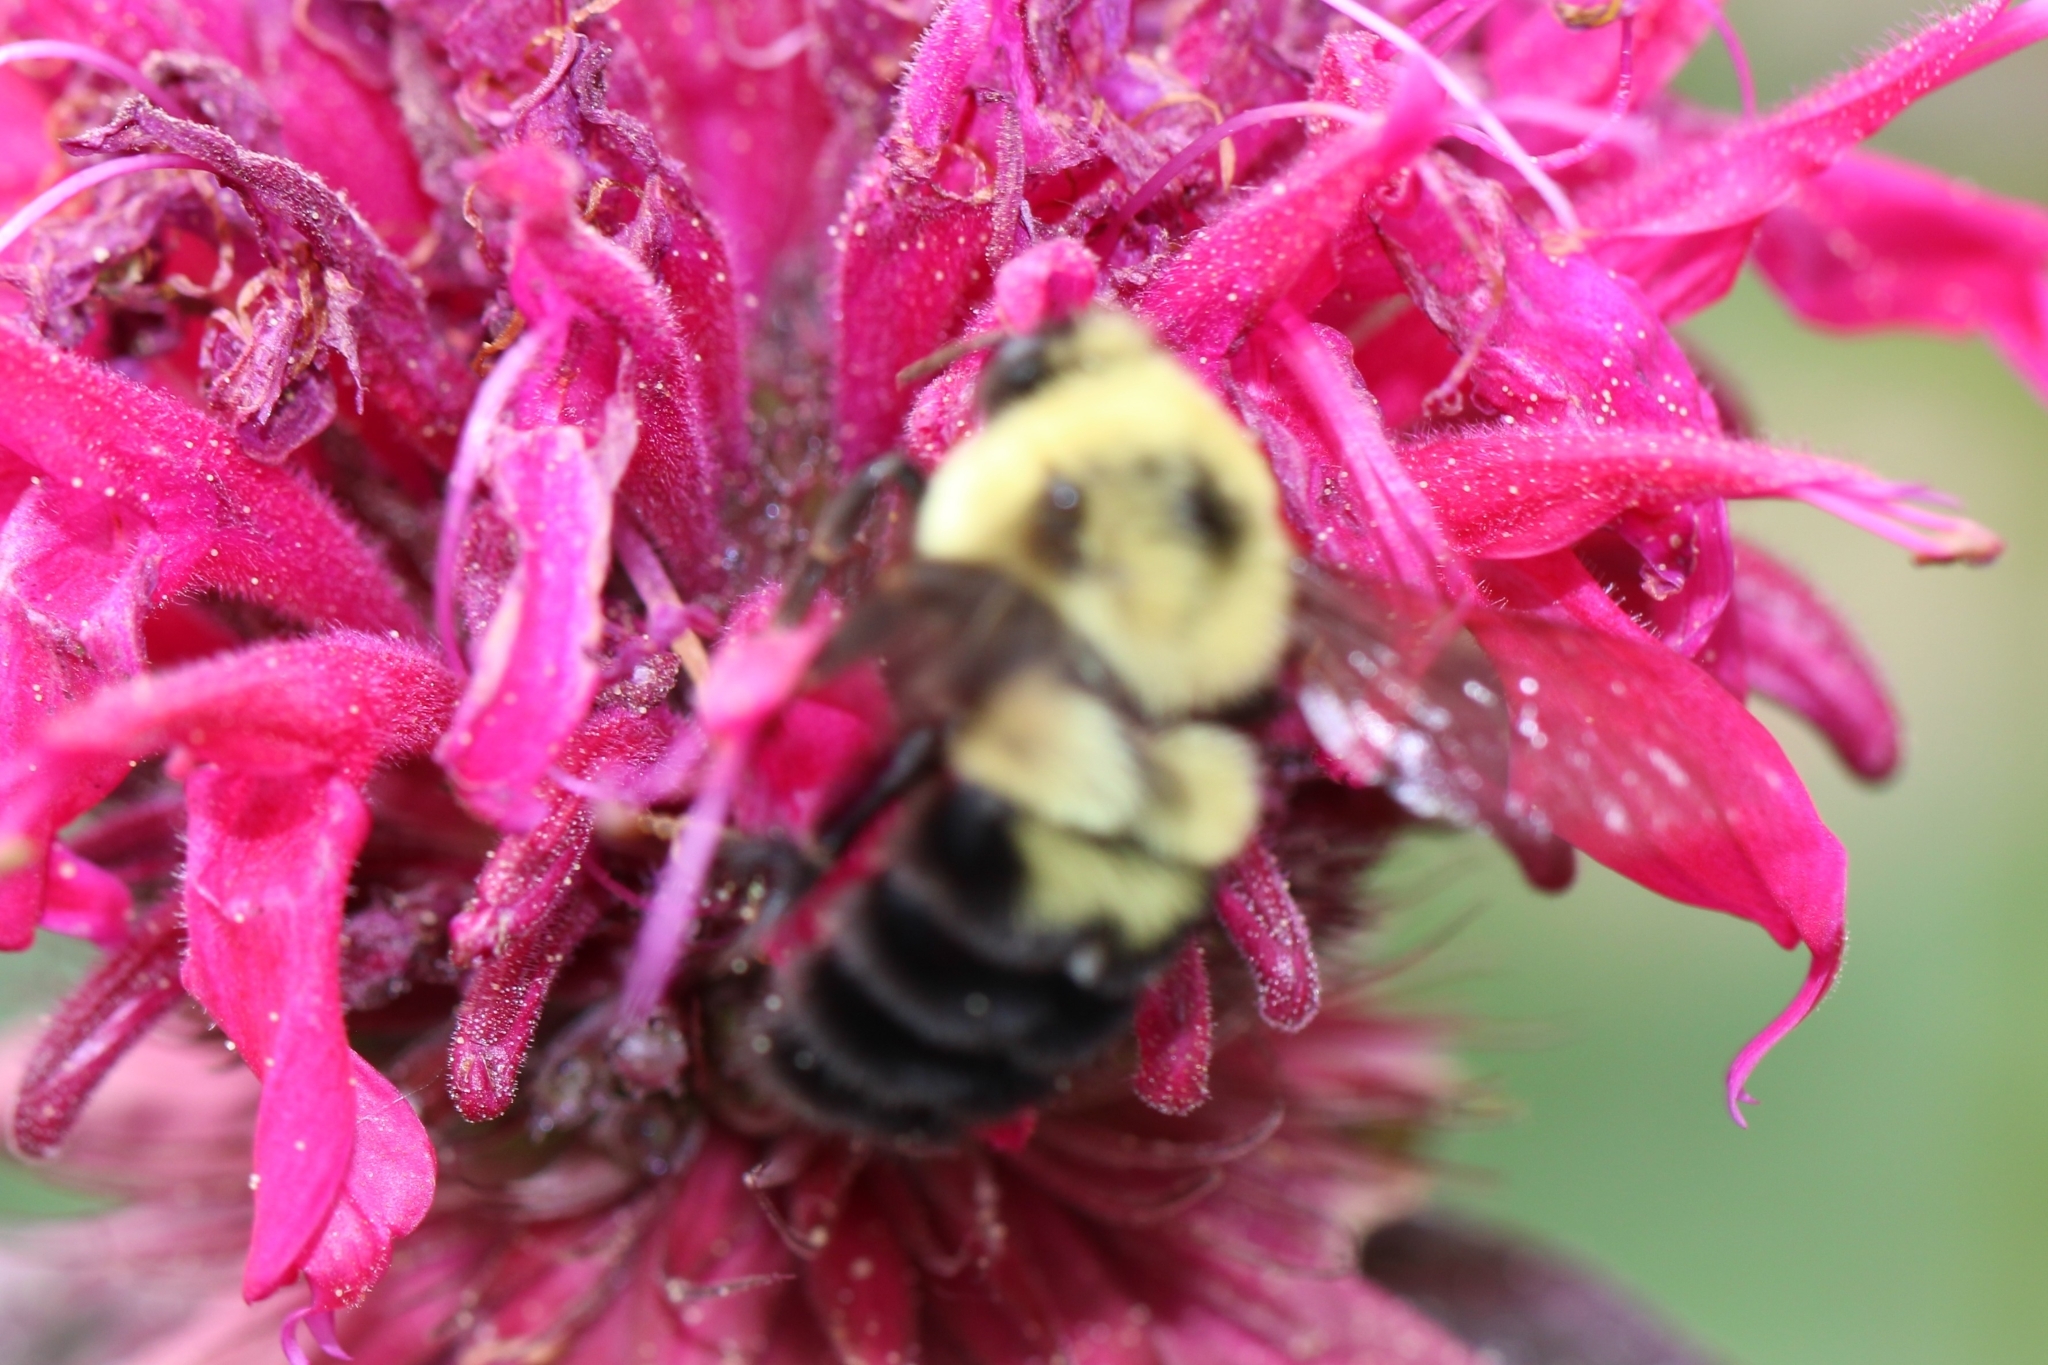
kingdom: Animalia
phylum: Arthropoda
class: Insecta
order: Hymenoptera
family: Apidae
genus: Bombus
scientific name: Bombus bimaculatus
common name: Two-spotted bumble bee
